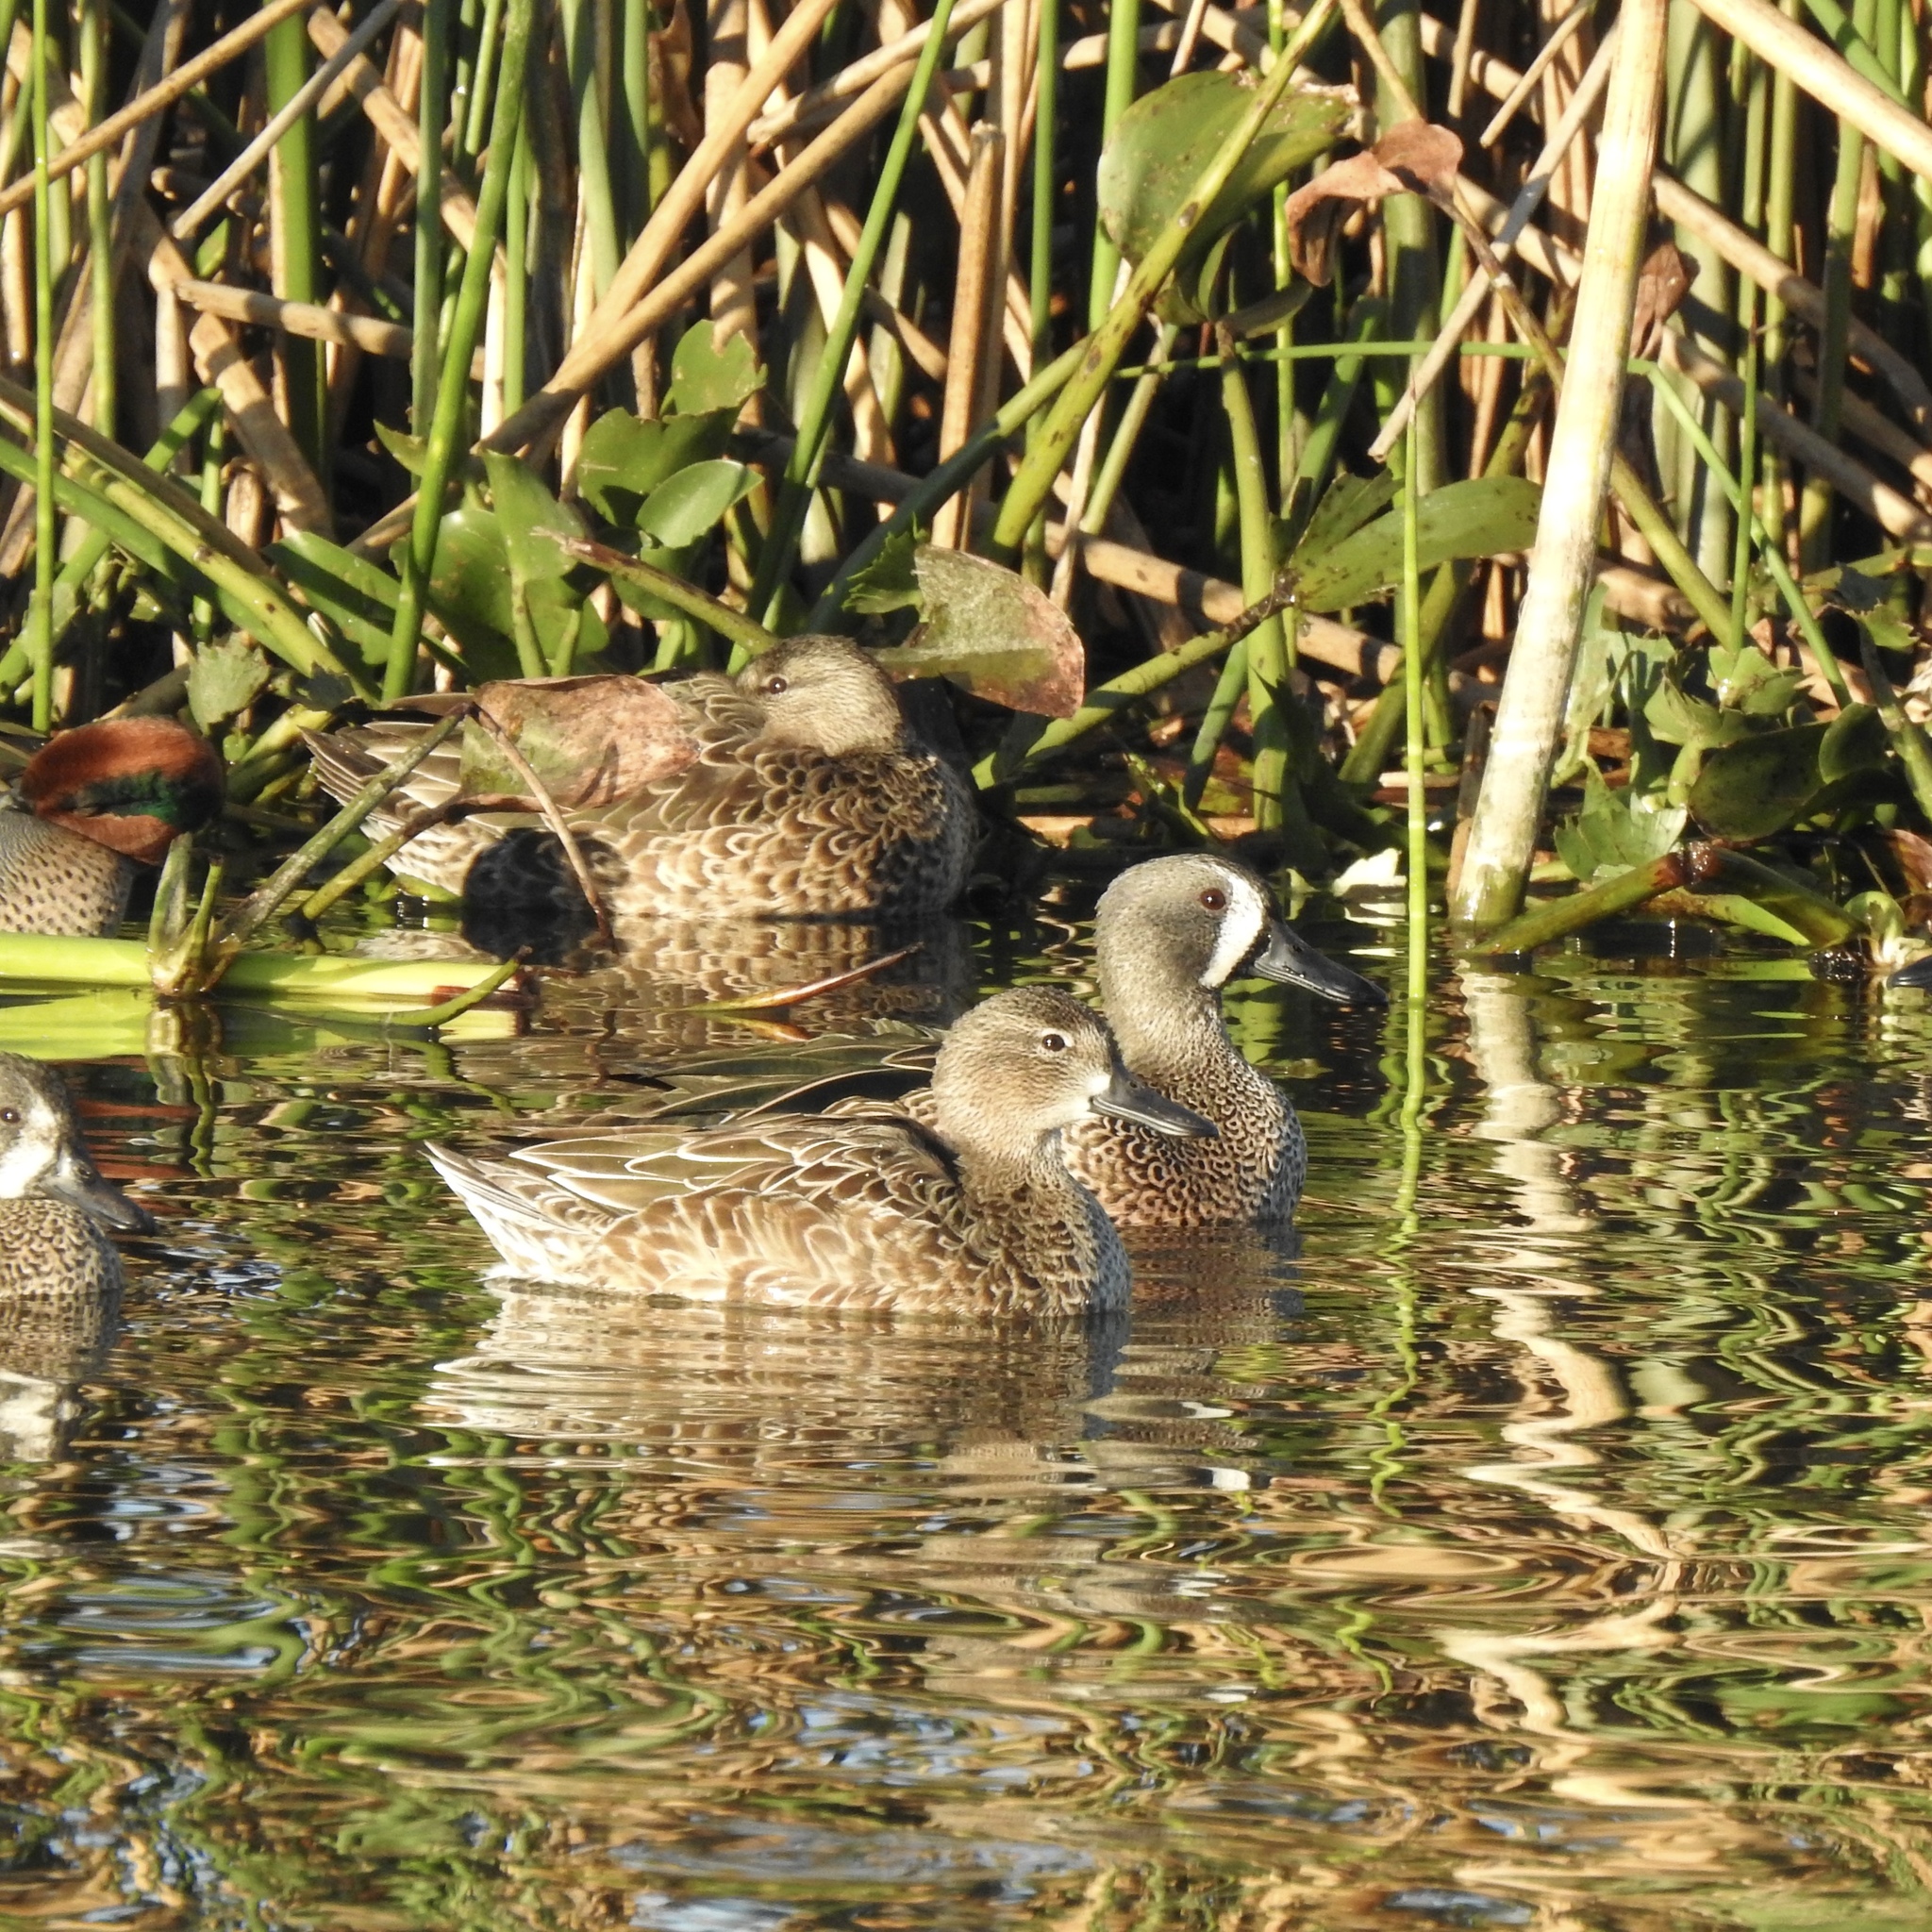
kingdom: Animalia
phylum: Chordata
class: Aves
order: Anseriformes
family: Anatidae
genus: Spatula
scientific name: Spatula discors
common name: Blue-winged teal
